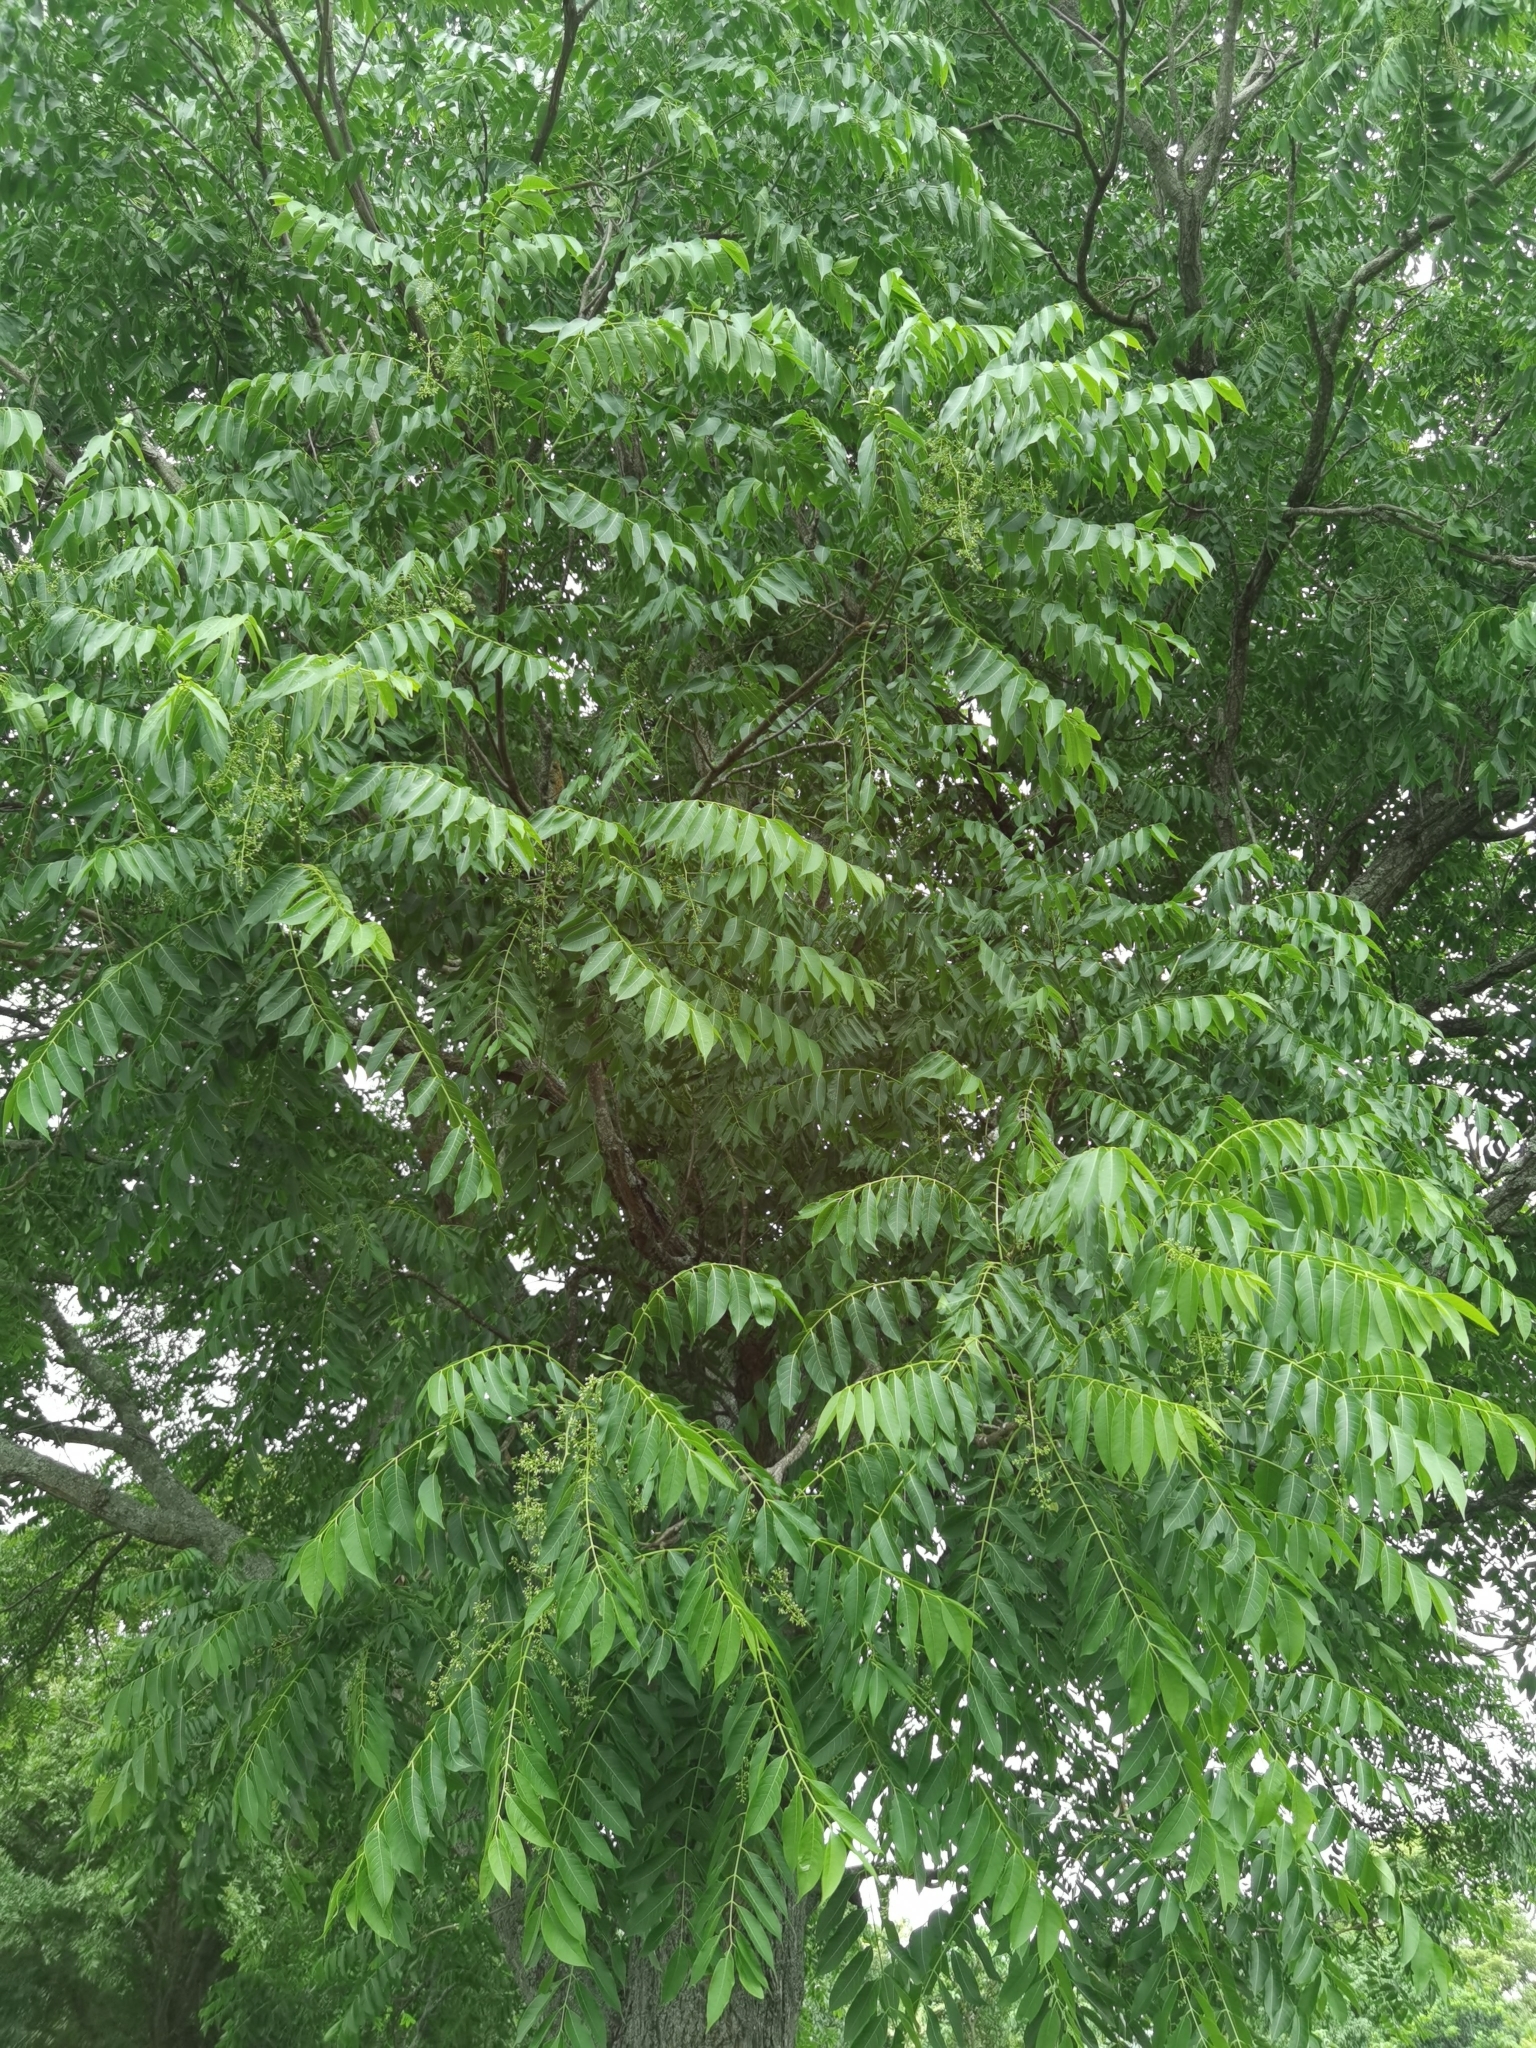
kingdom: Plantae
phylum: Tracheophyta
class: Magnoliopsida
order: Sapindales
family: Meliaceae
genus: Cedrela
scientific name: Cedrela odorata
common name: Red cedar
